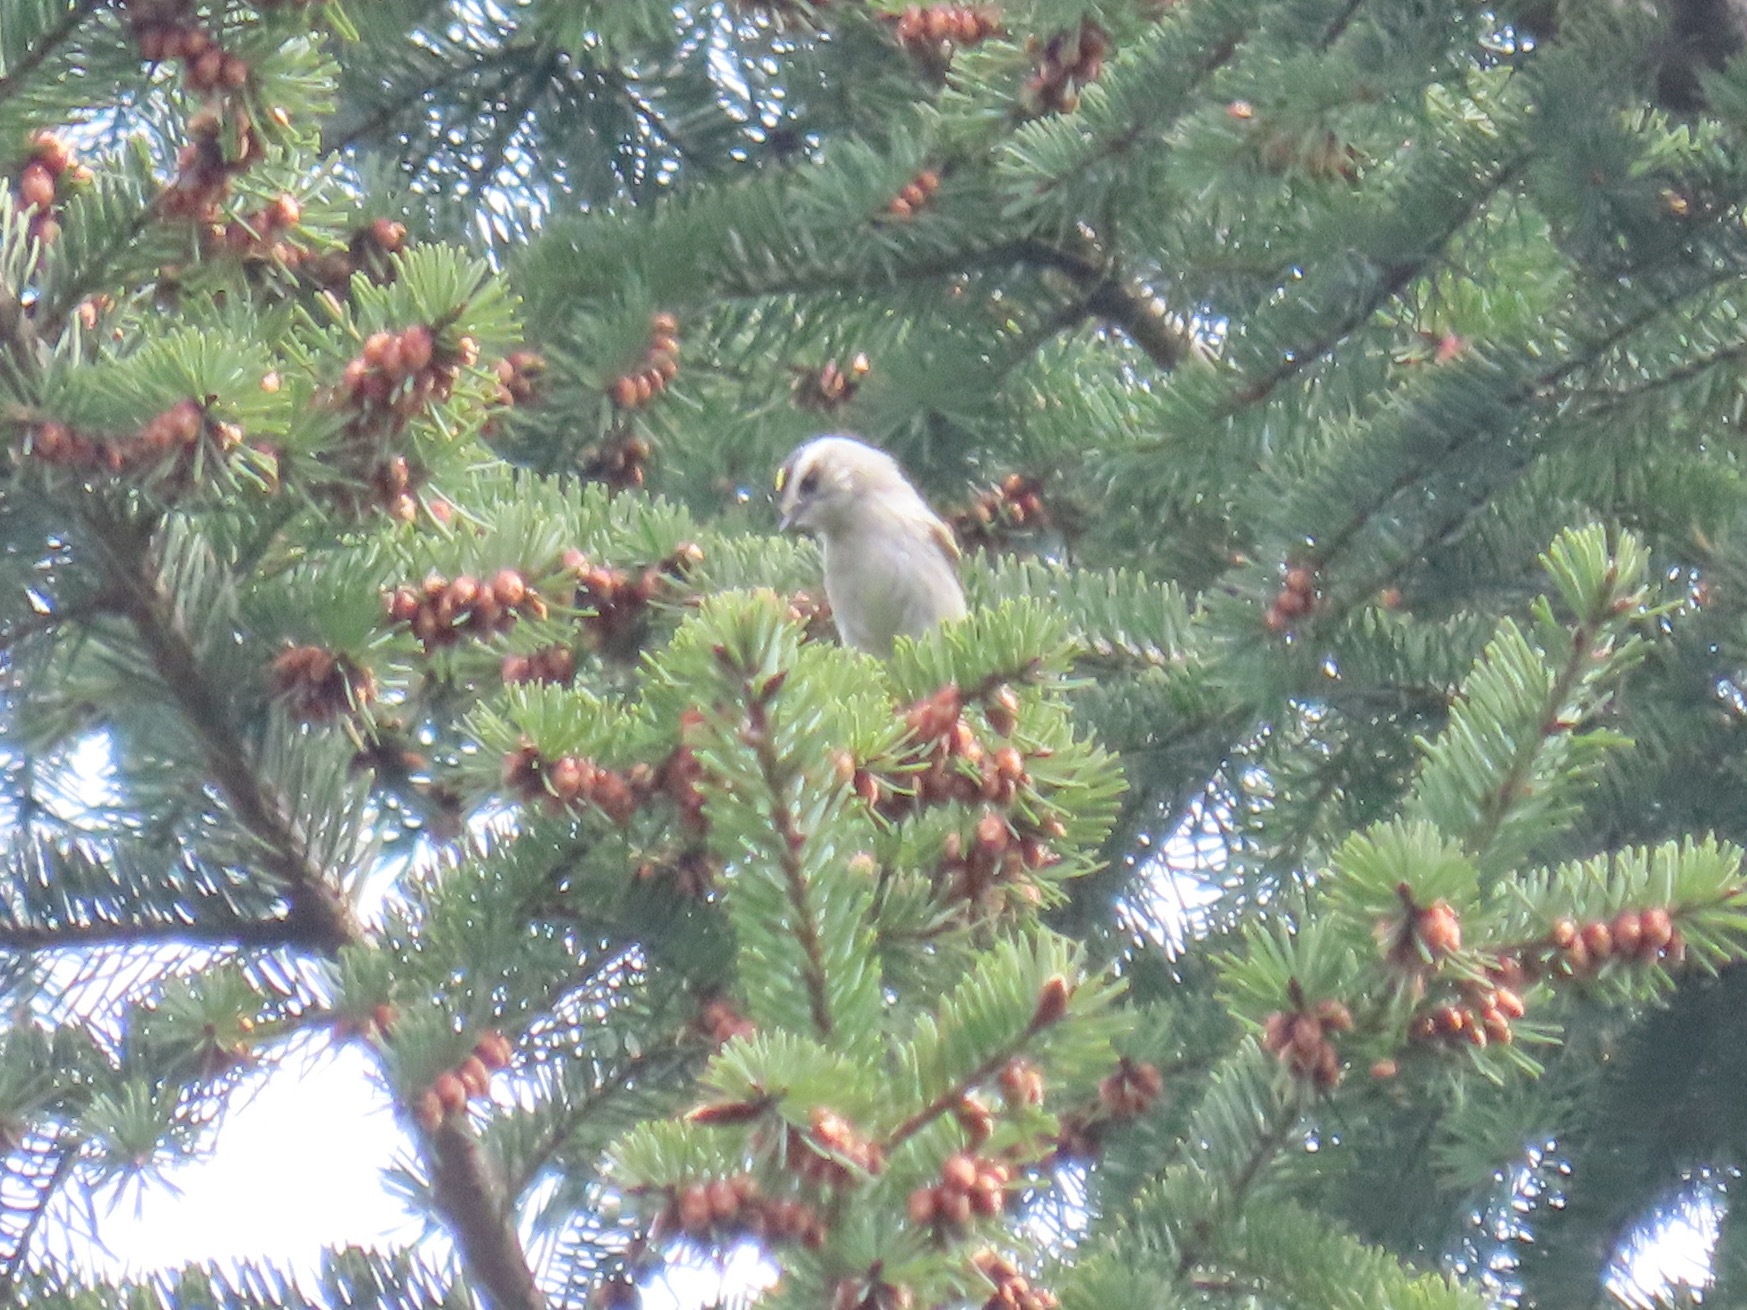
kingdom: Animalia
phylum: Chordata
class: Aves
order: Passeriformes
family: Regulidae
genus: Regulus
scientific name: Regulus satrapa
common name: Golden-crowned kinglet
